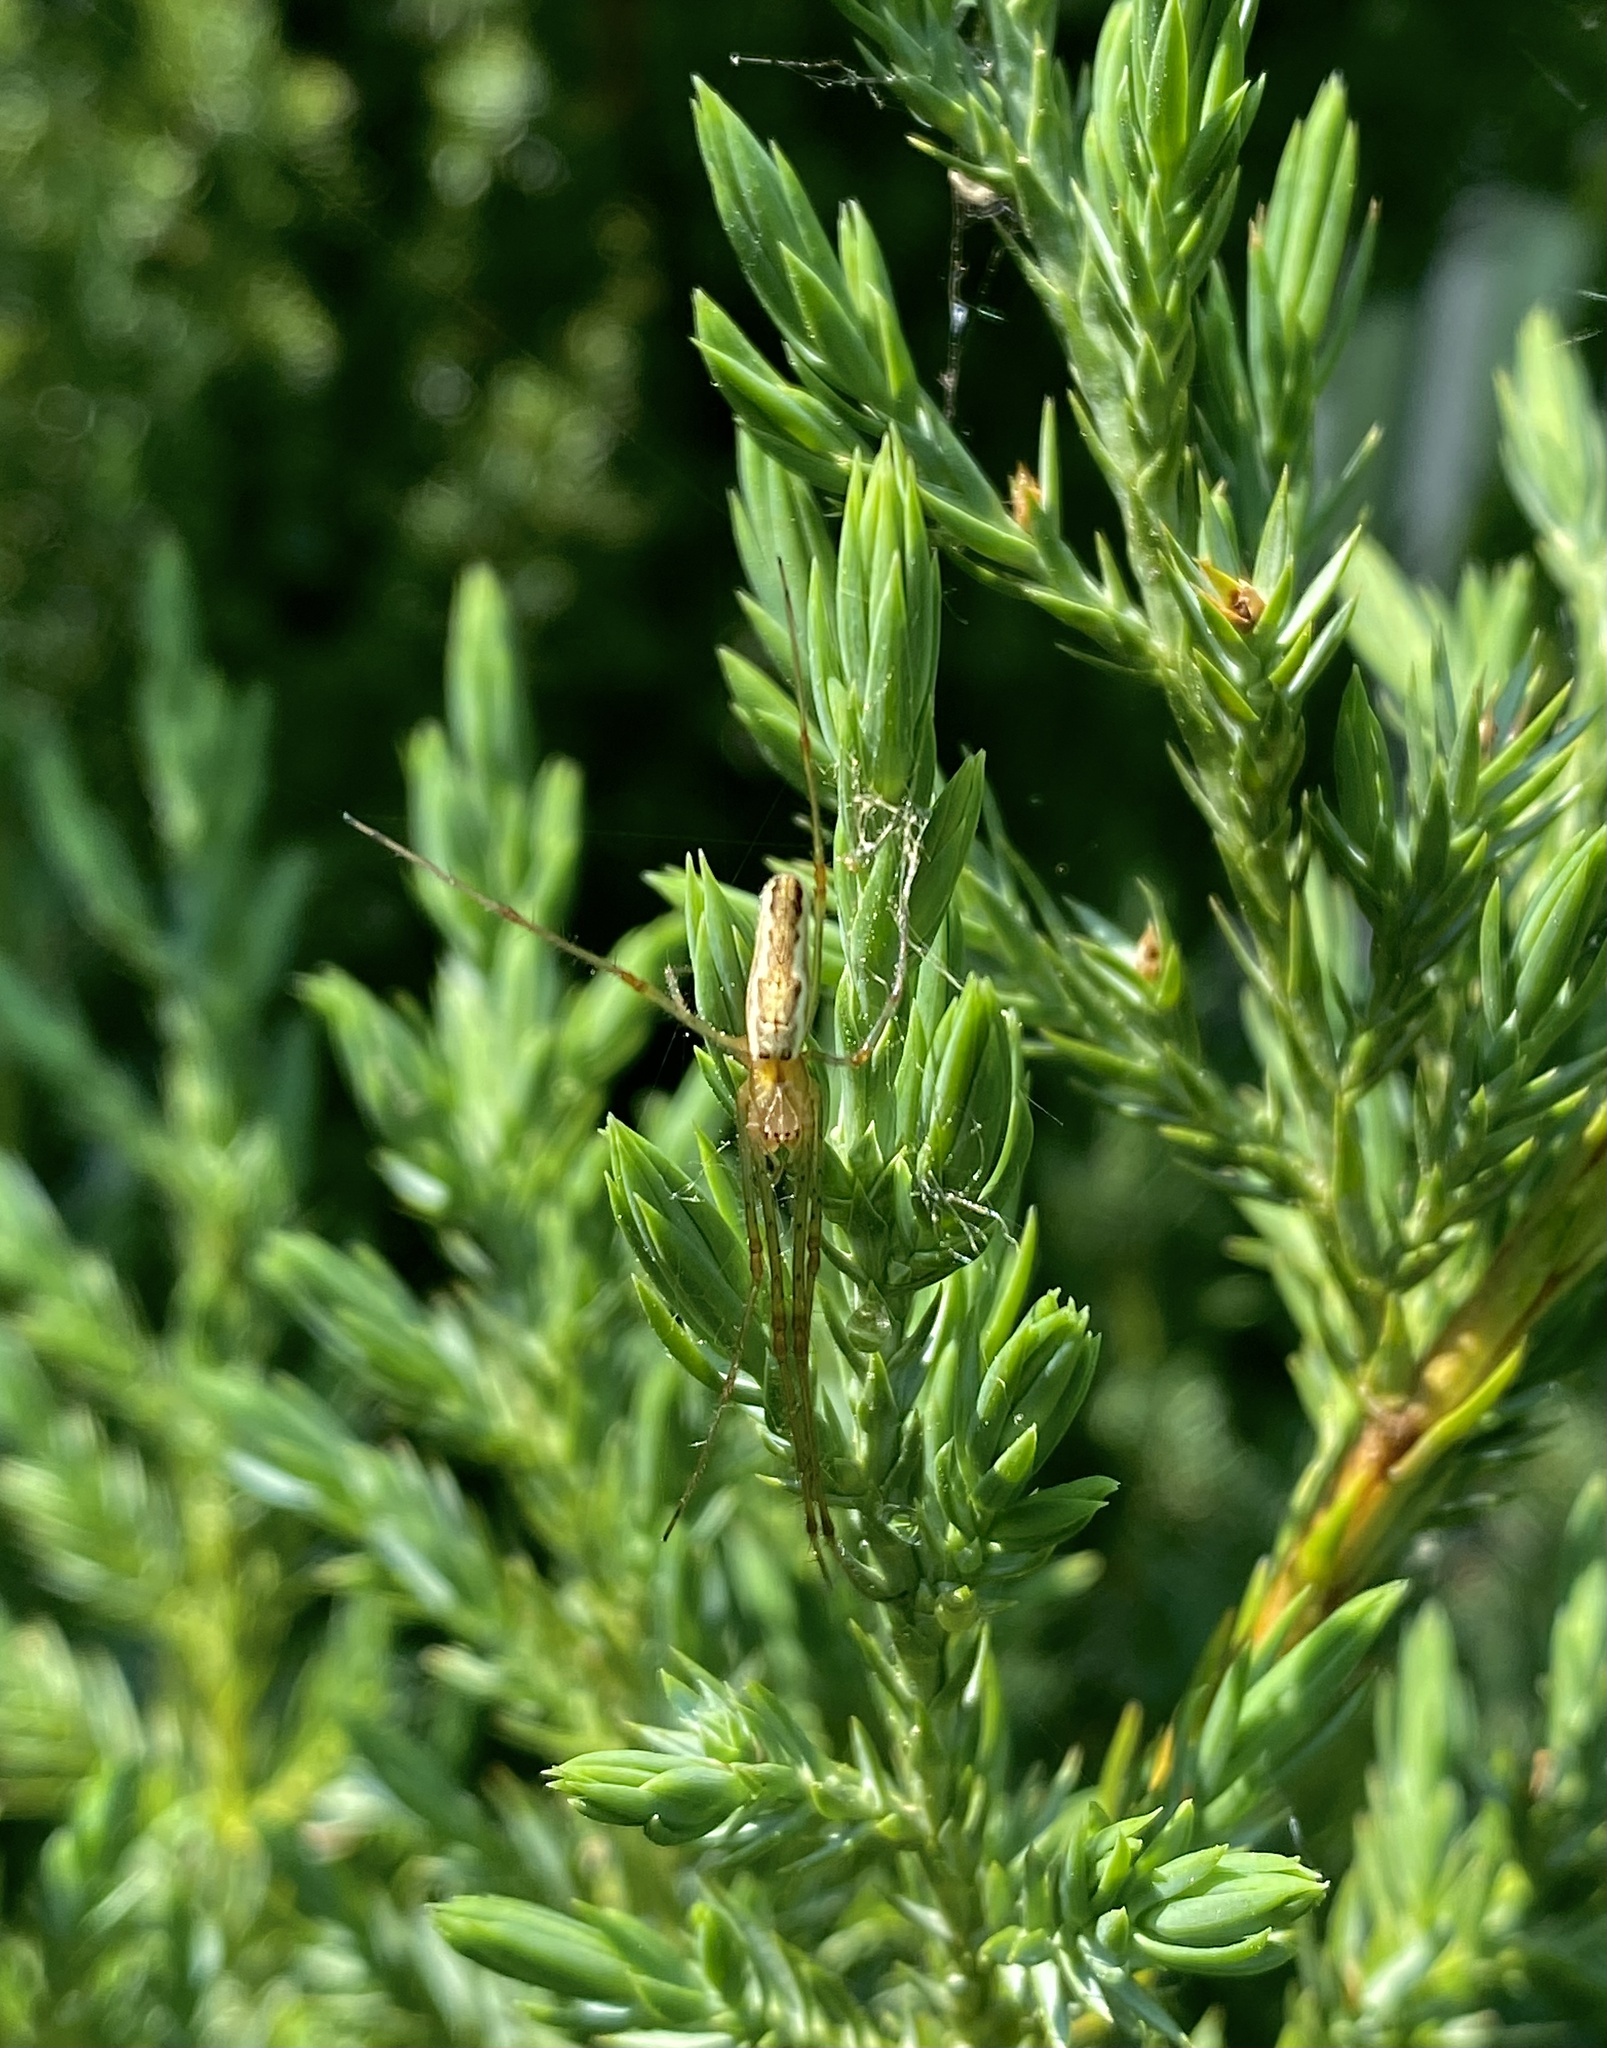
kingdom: Animalia
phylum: Arthropoda
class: Arachnida
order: Araneae
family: Tetragnathidae
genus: Tetragnatha
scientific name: Tetragnatha
